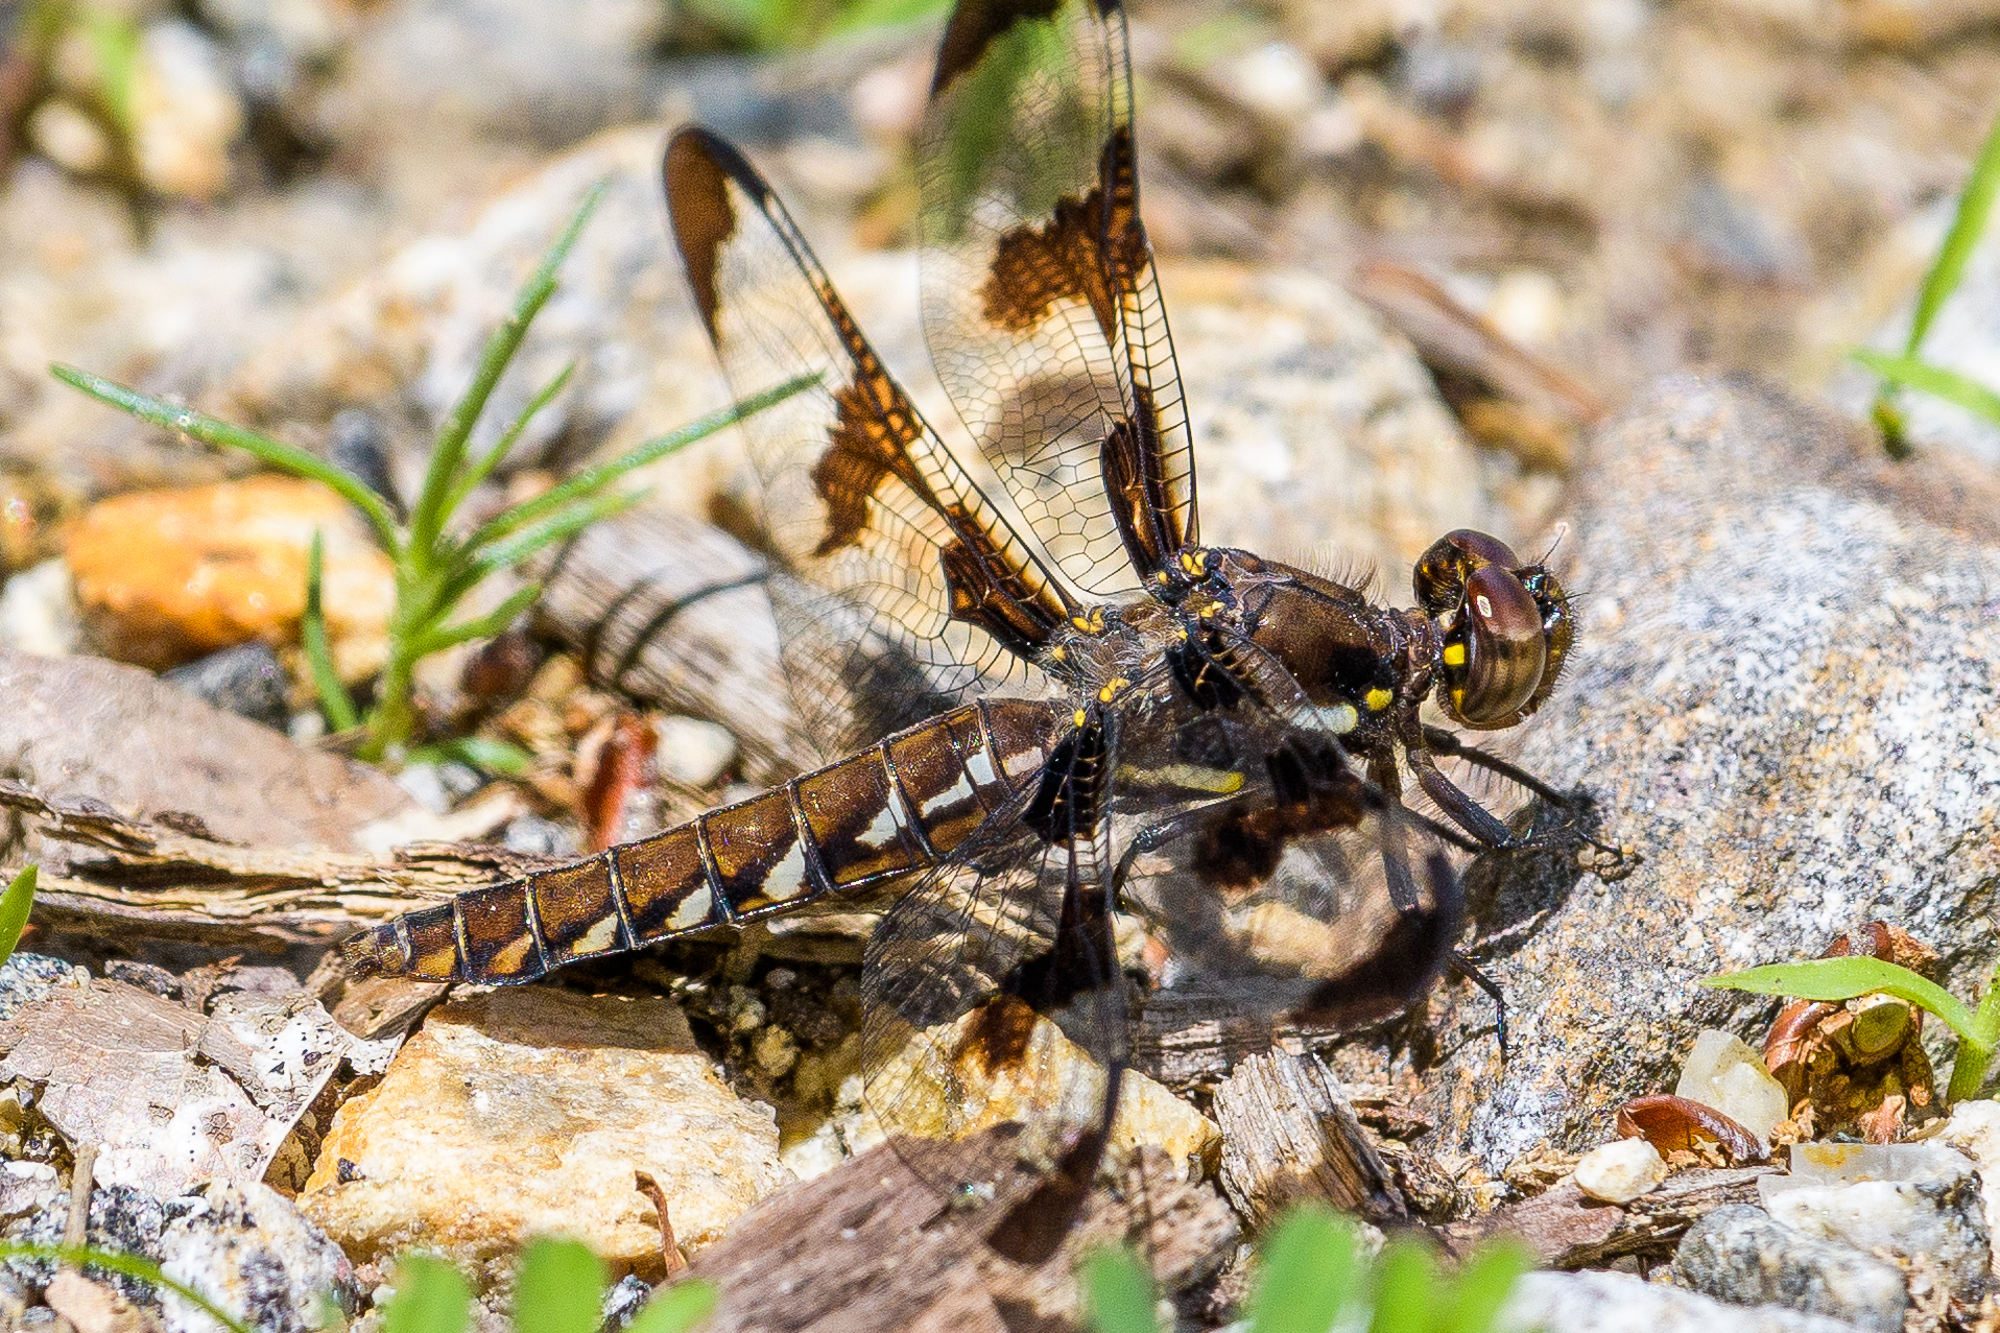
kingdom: Animalia
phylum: Arthropoda
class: Insecta
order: Odonata
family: Libellulidae
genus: Plathemis
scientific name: Plathemis lydia
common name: Common whitetail
